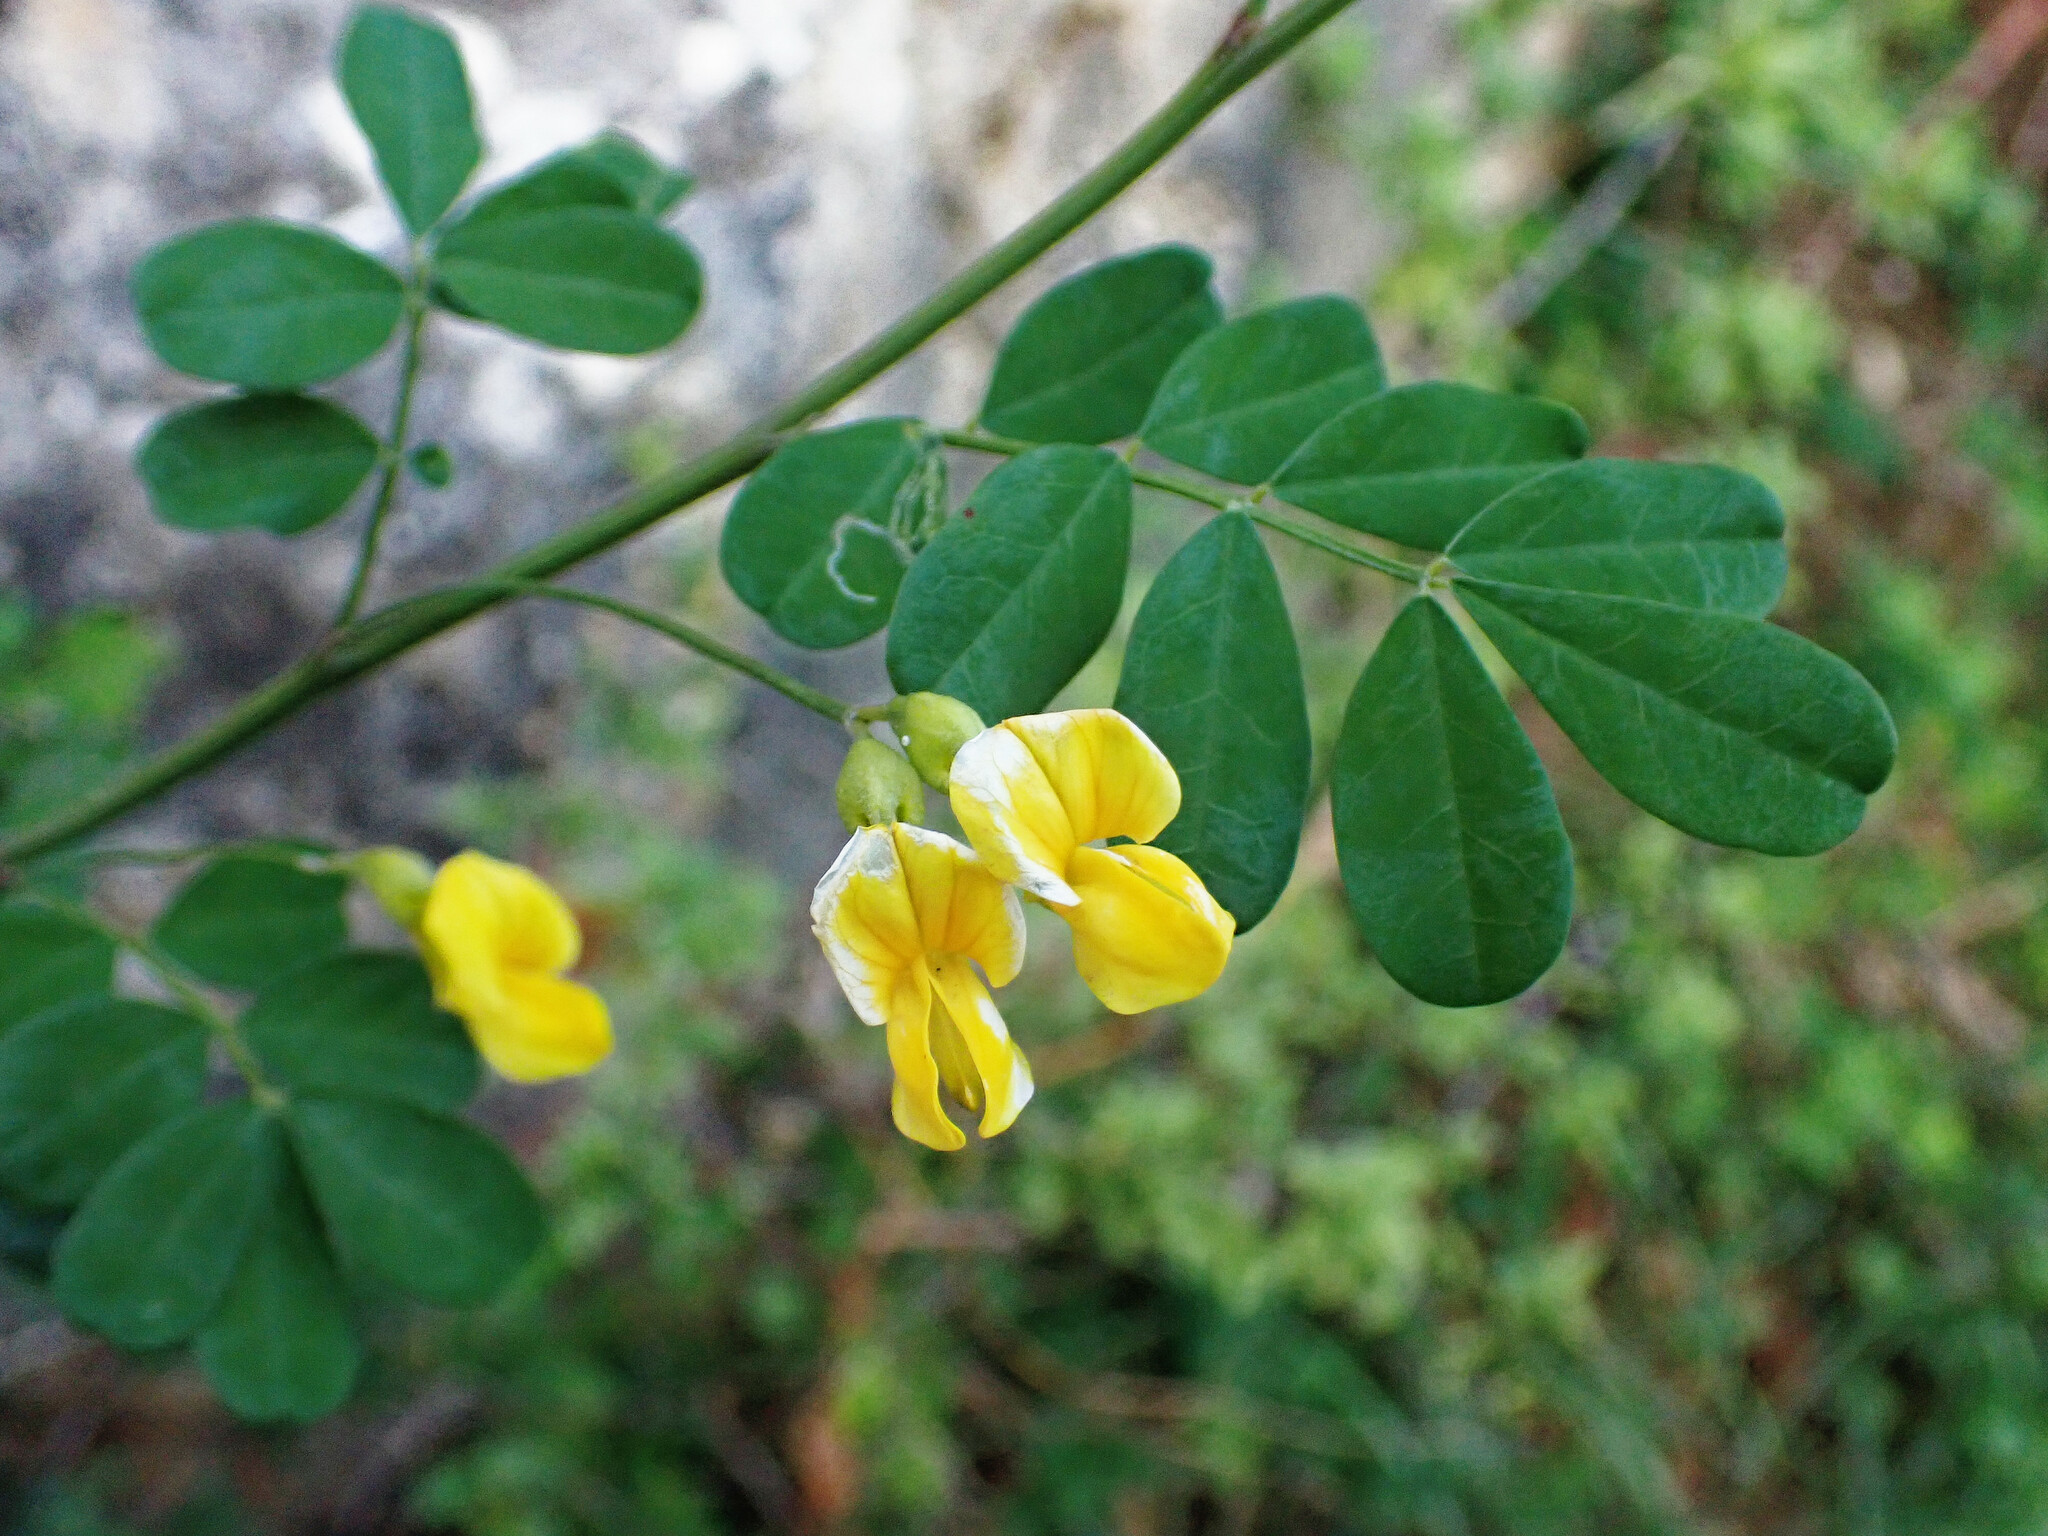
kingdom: Plantae
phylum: Tracheophyta
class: Magnoliopsida
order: Fabales
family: Fabaceae
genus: Hippocrepis
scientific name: Hippocrepis emerus
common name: Scorpion senna
